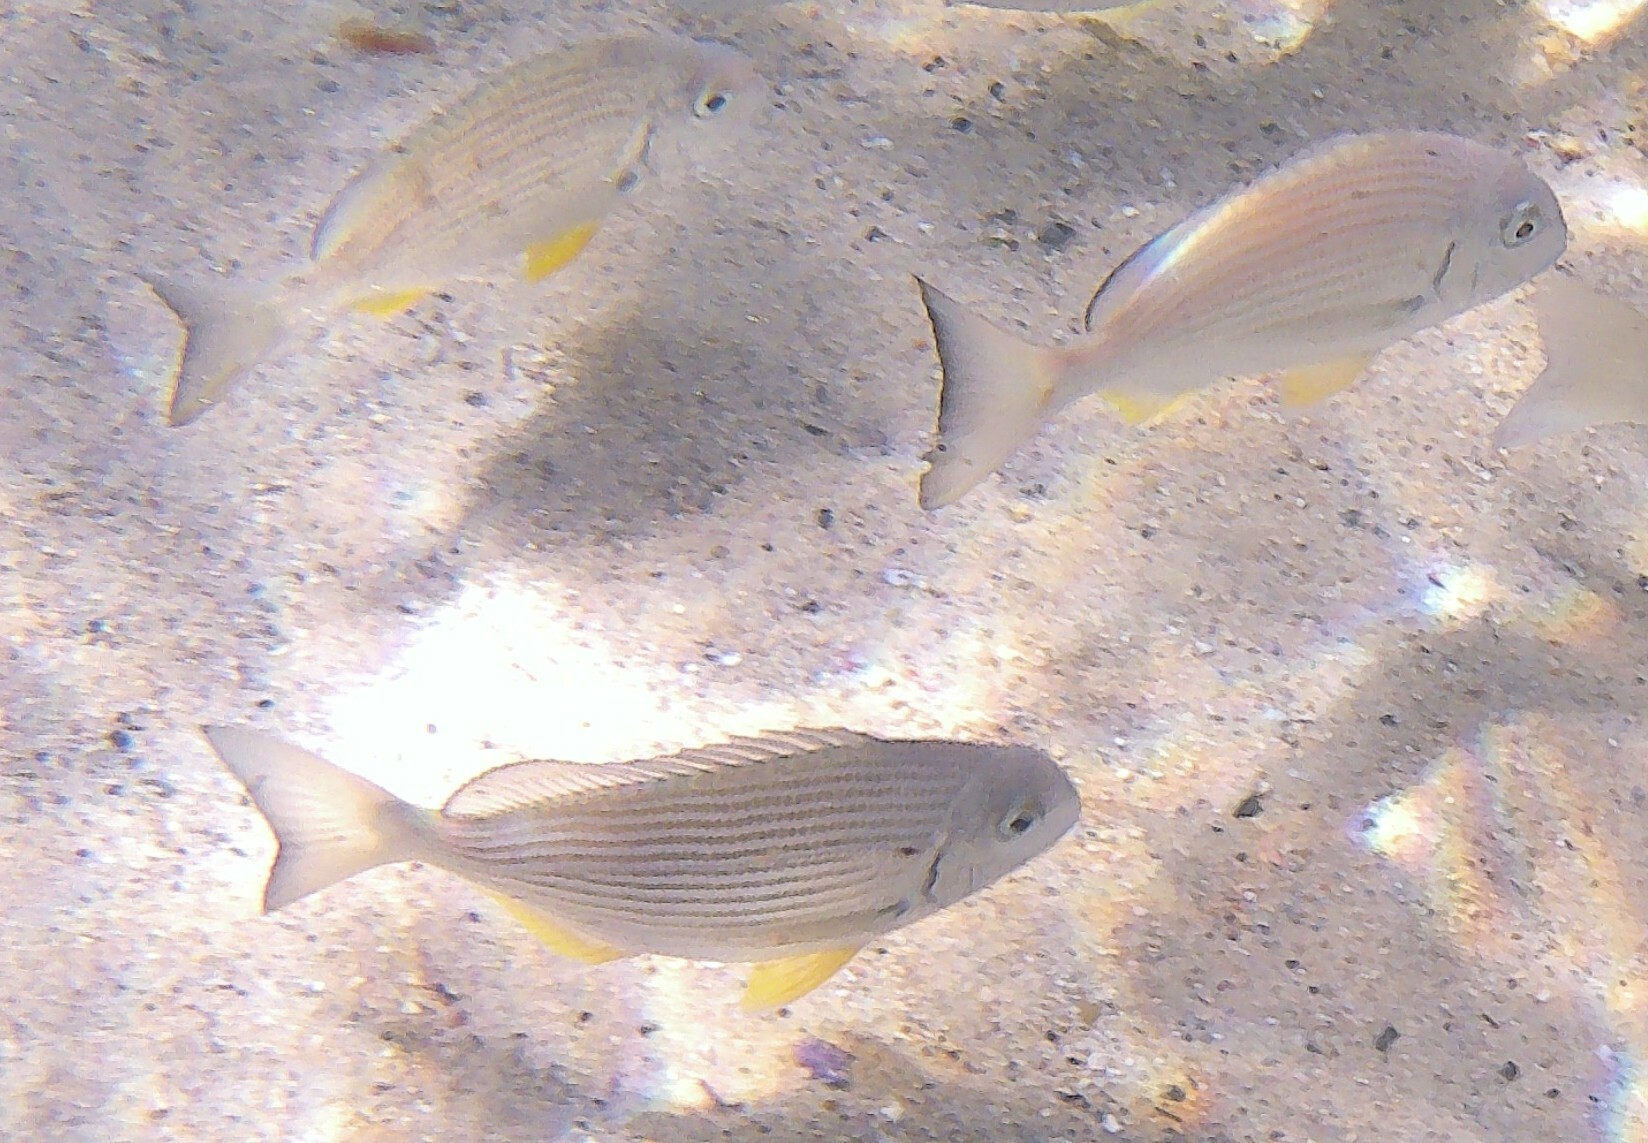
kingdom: Animalia
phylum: Chordata
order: Perciformes
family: Sparidae
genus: Rhabdosargus
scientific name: Rhabdosargus sarba
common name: Goldlined seabream
